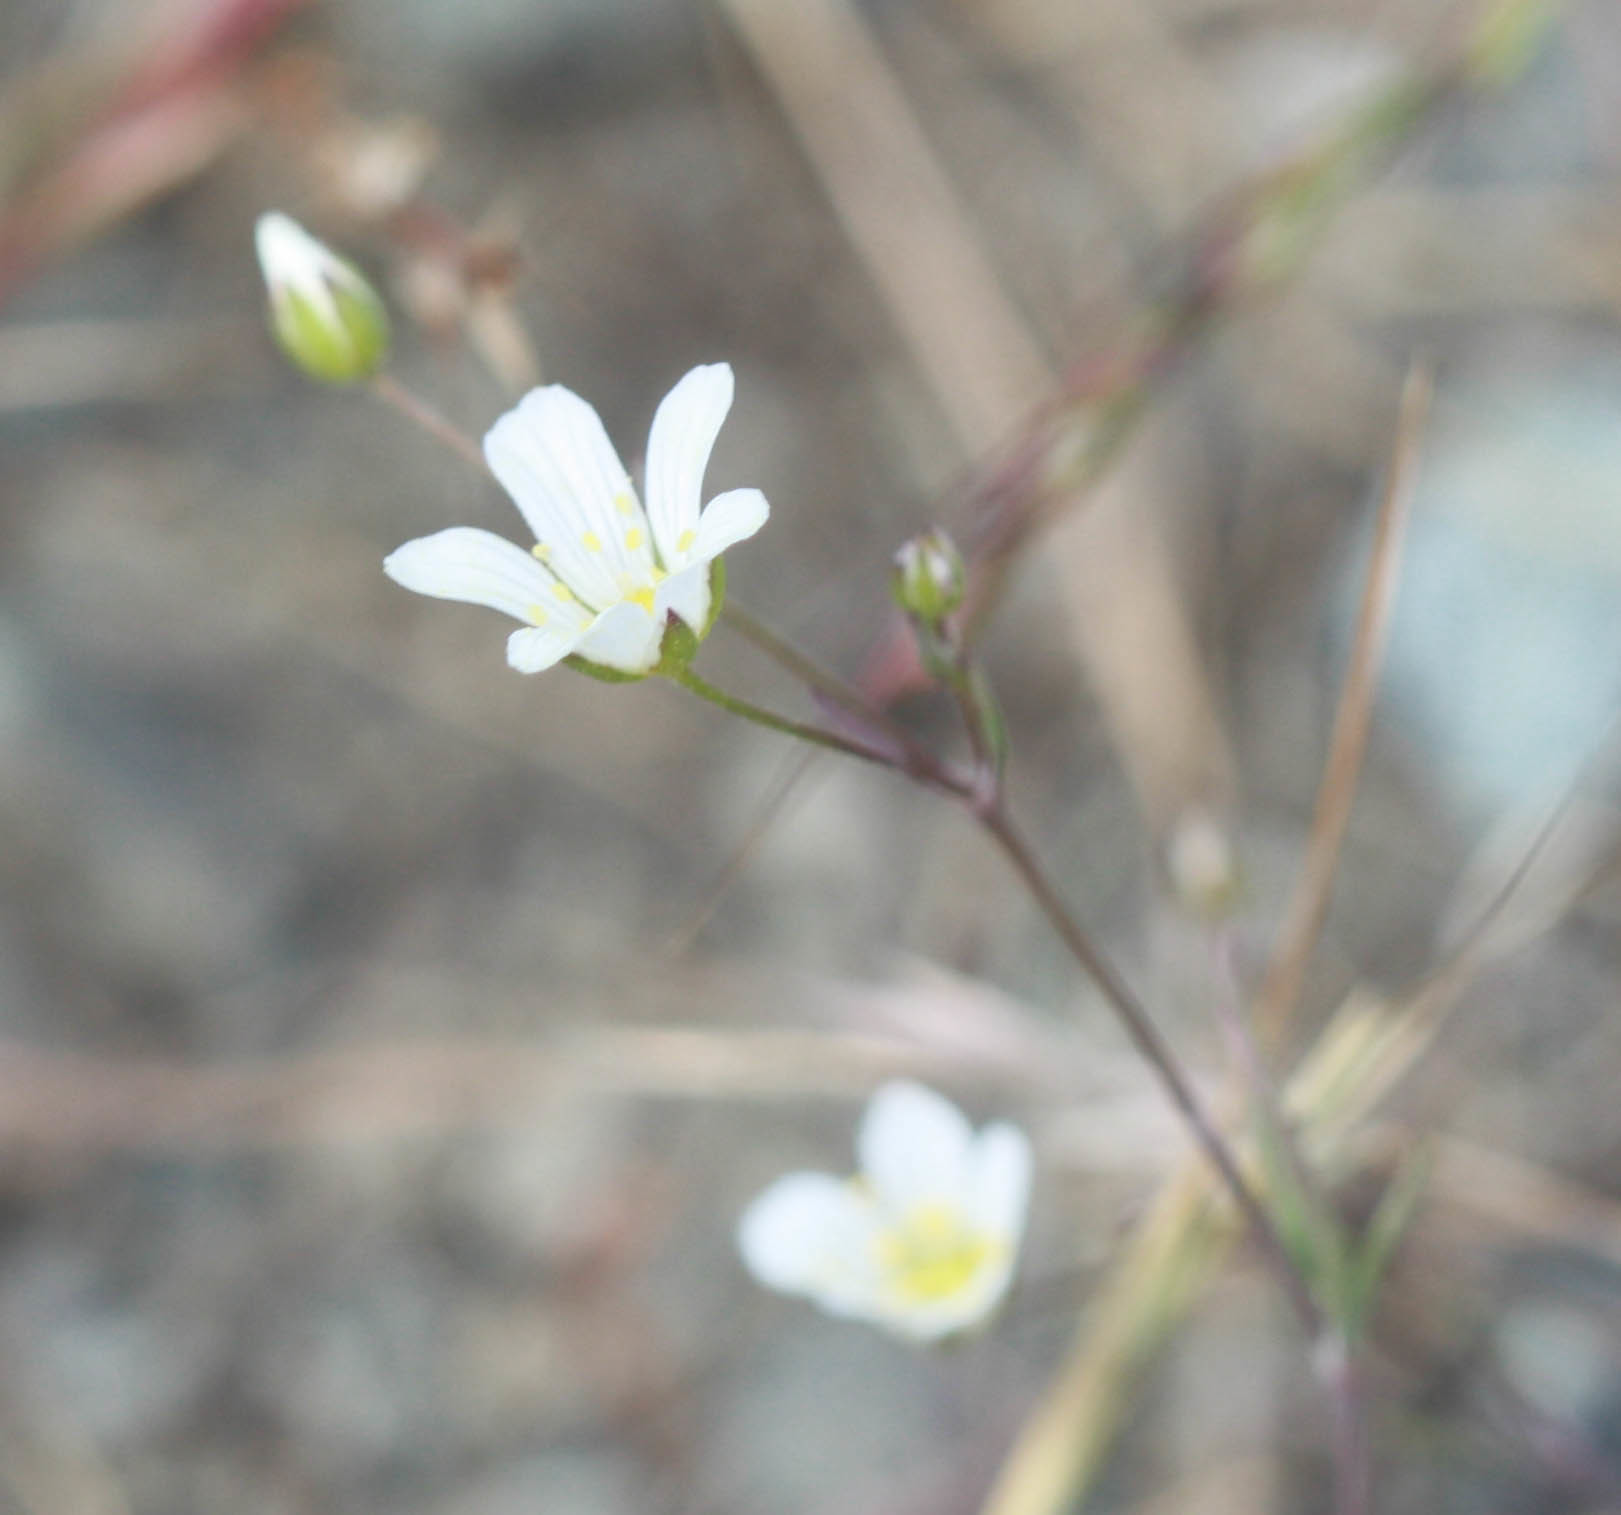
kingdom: Plantae
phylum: Tracheophyta
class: Magnoliopsida
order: Caryophyllales
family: Caryophyllaceae
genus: Sabulina
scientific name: Sabulina douglasii
